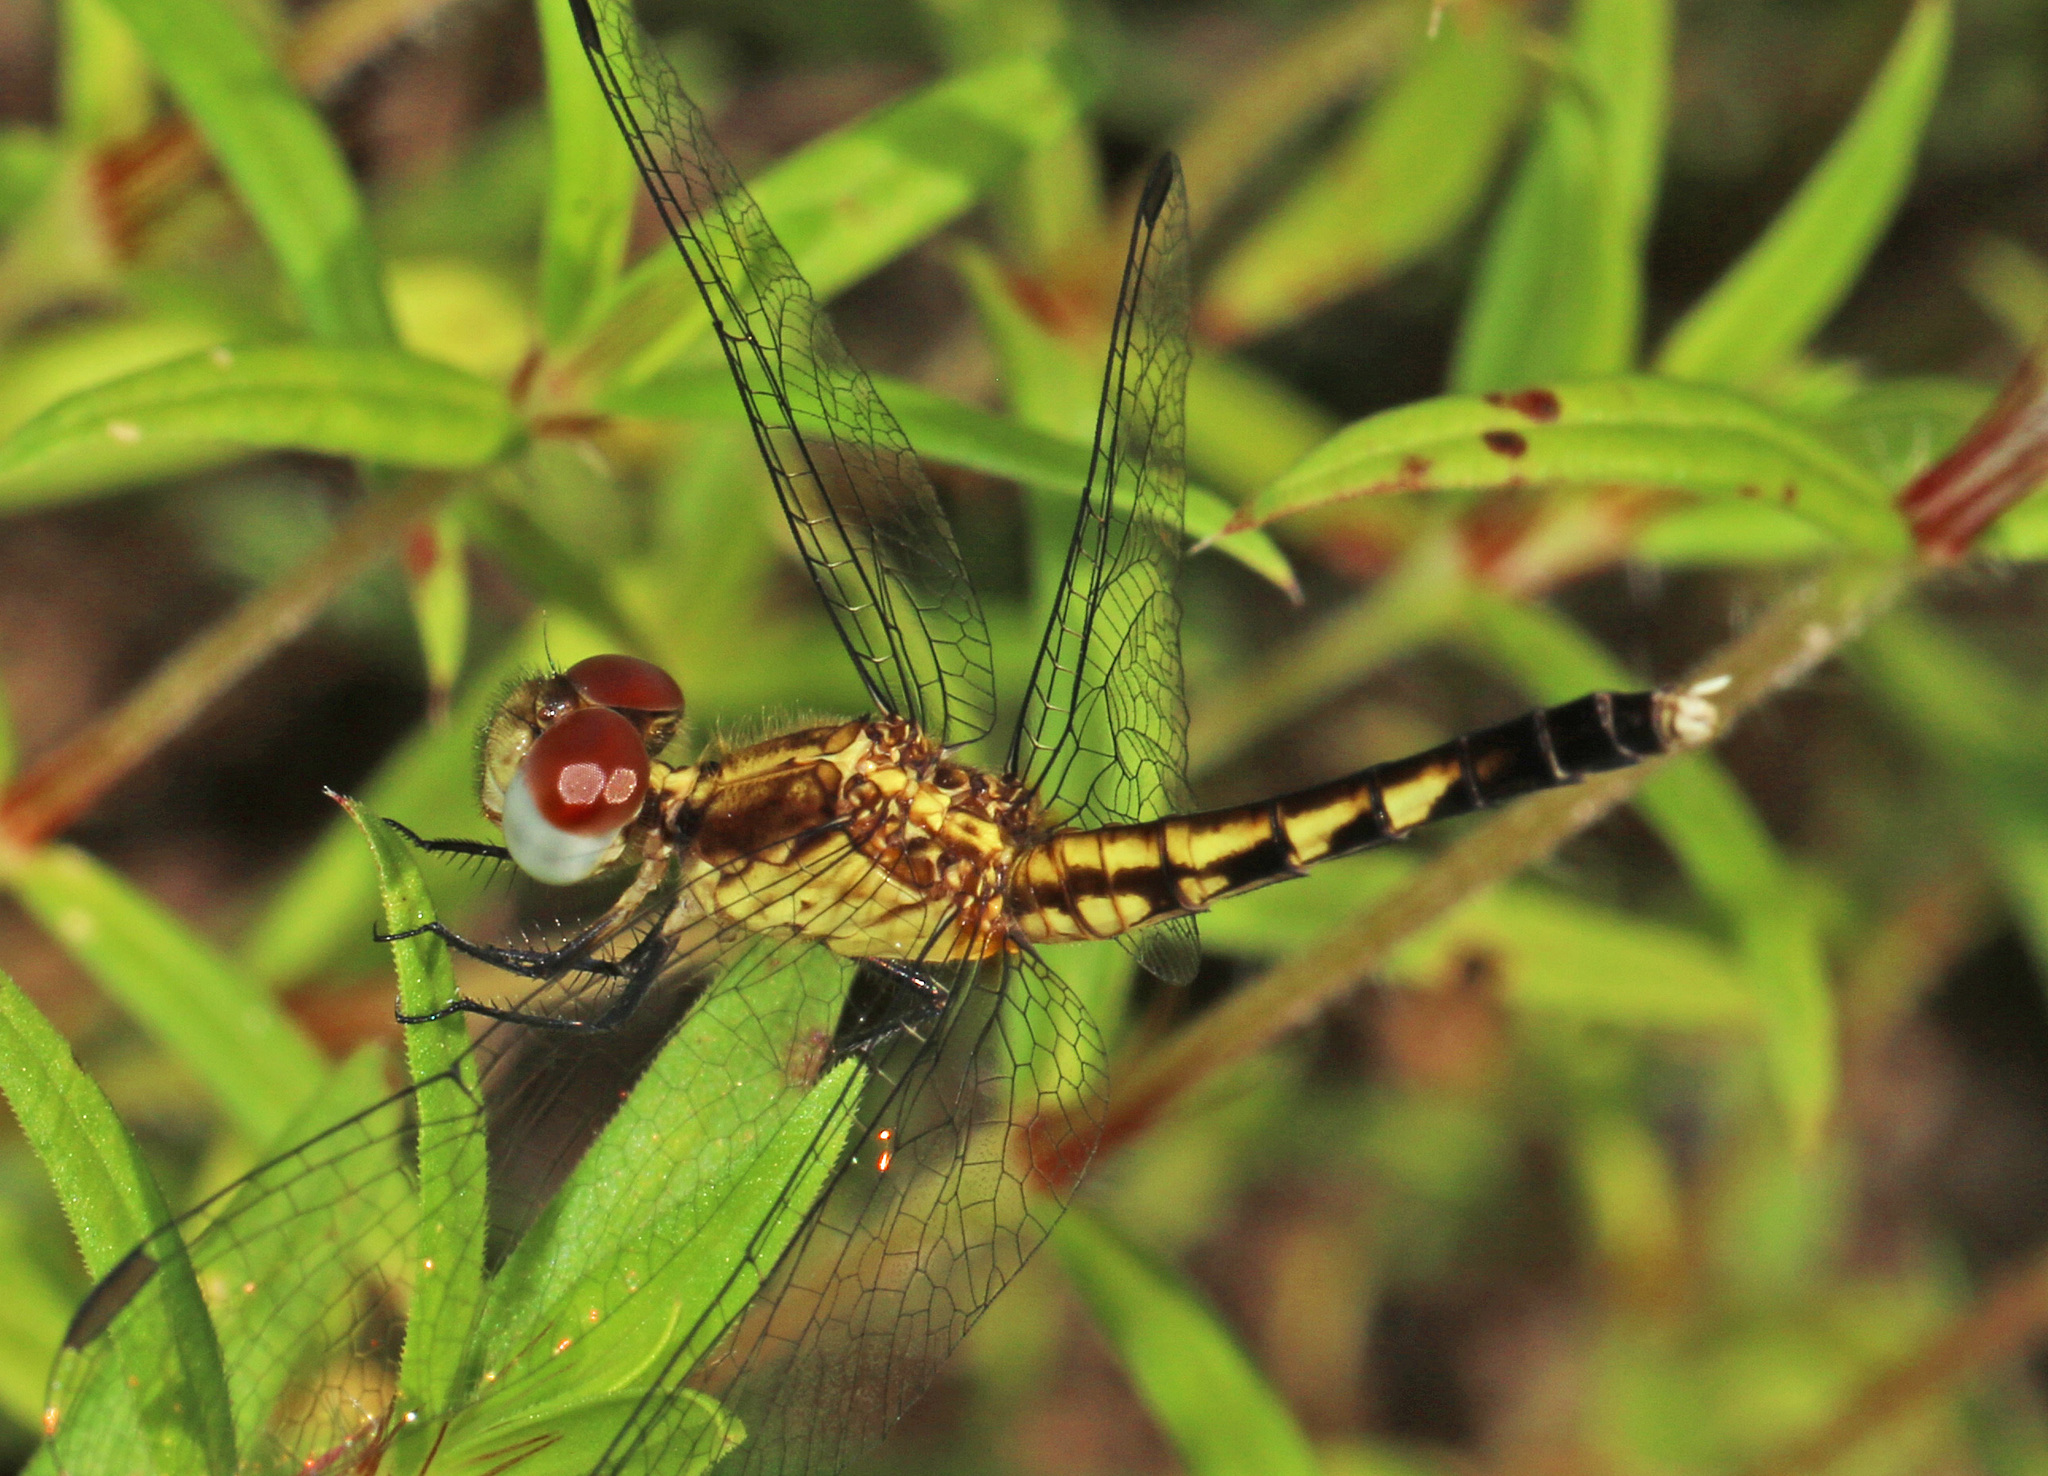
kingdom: Animalia
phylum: Arthropoda
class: Insecta
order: Odonata
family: Libellulidae
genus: Erythrodiplax
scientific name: Erythrodiplax minuscula
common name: Little blue dragonlet
